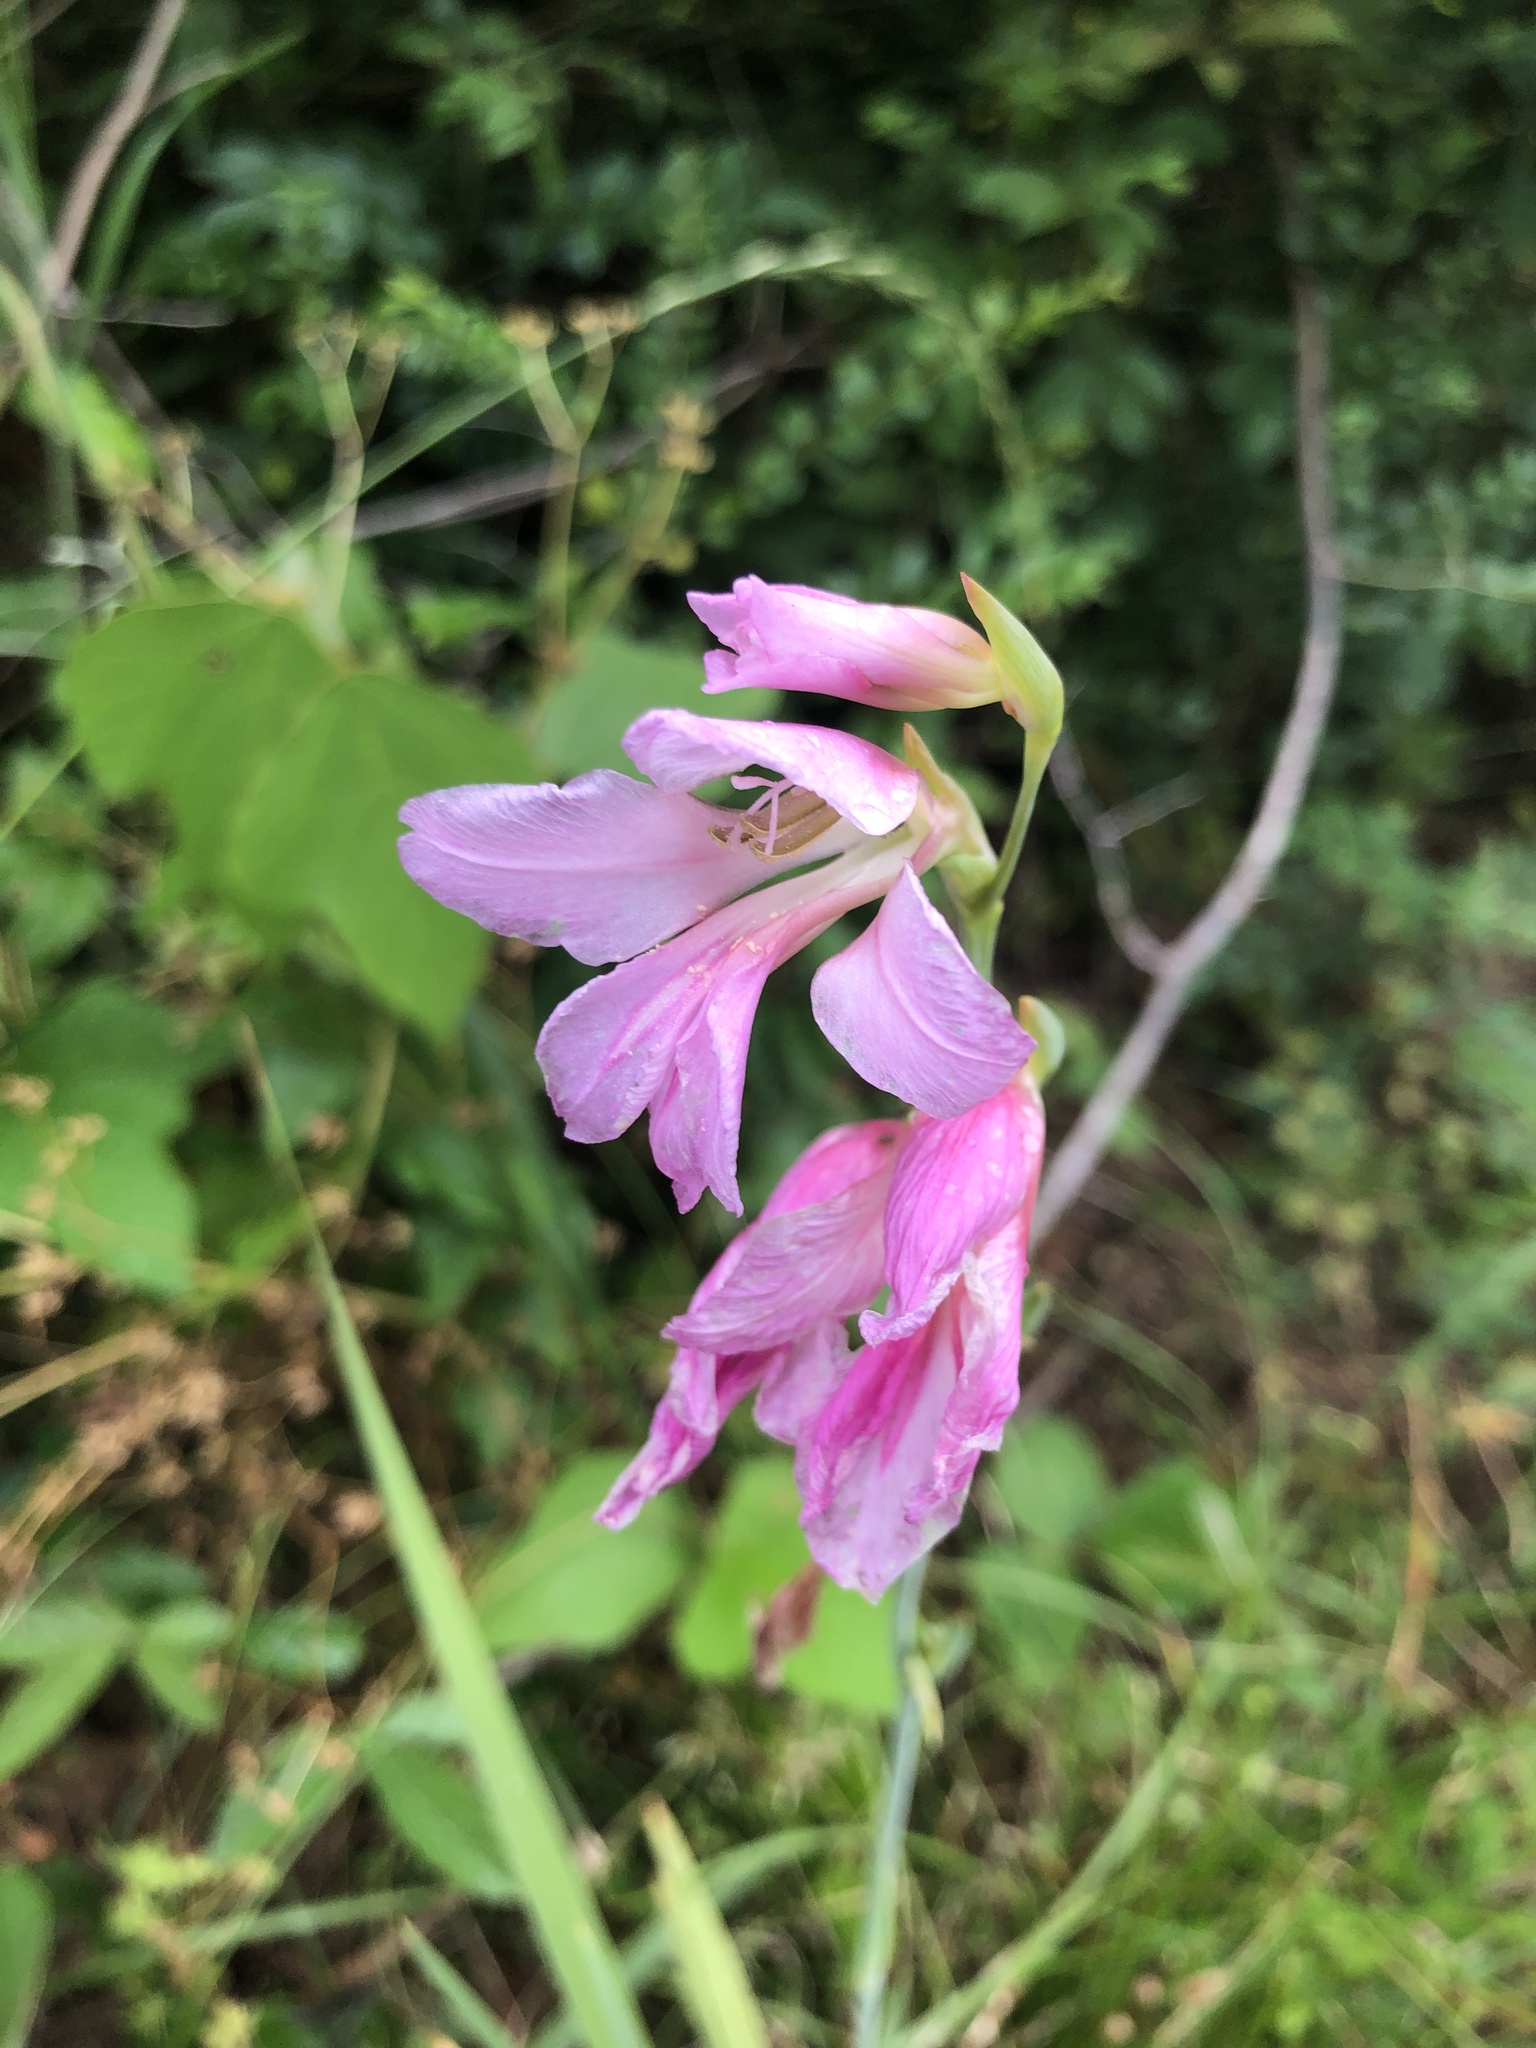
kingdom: Plantae
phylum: Tracheophyta
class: Liliopsida
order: Asparagales
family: Iridaceae
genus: Gladiolus
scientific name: Gladiolus italicus
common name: Field gladiolus
